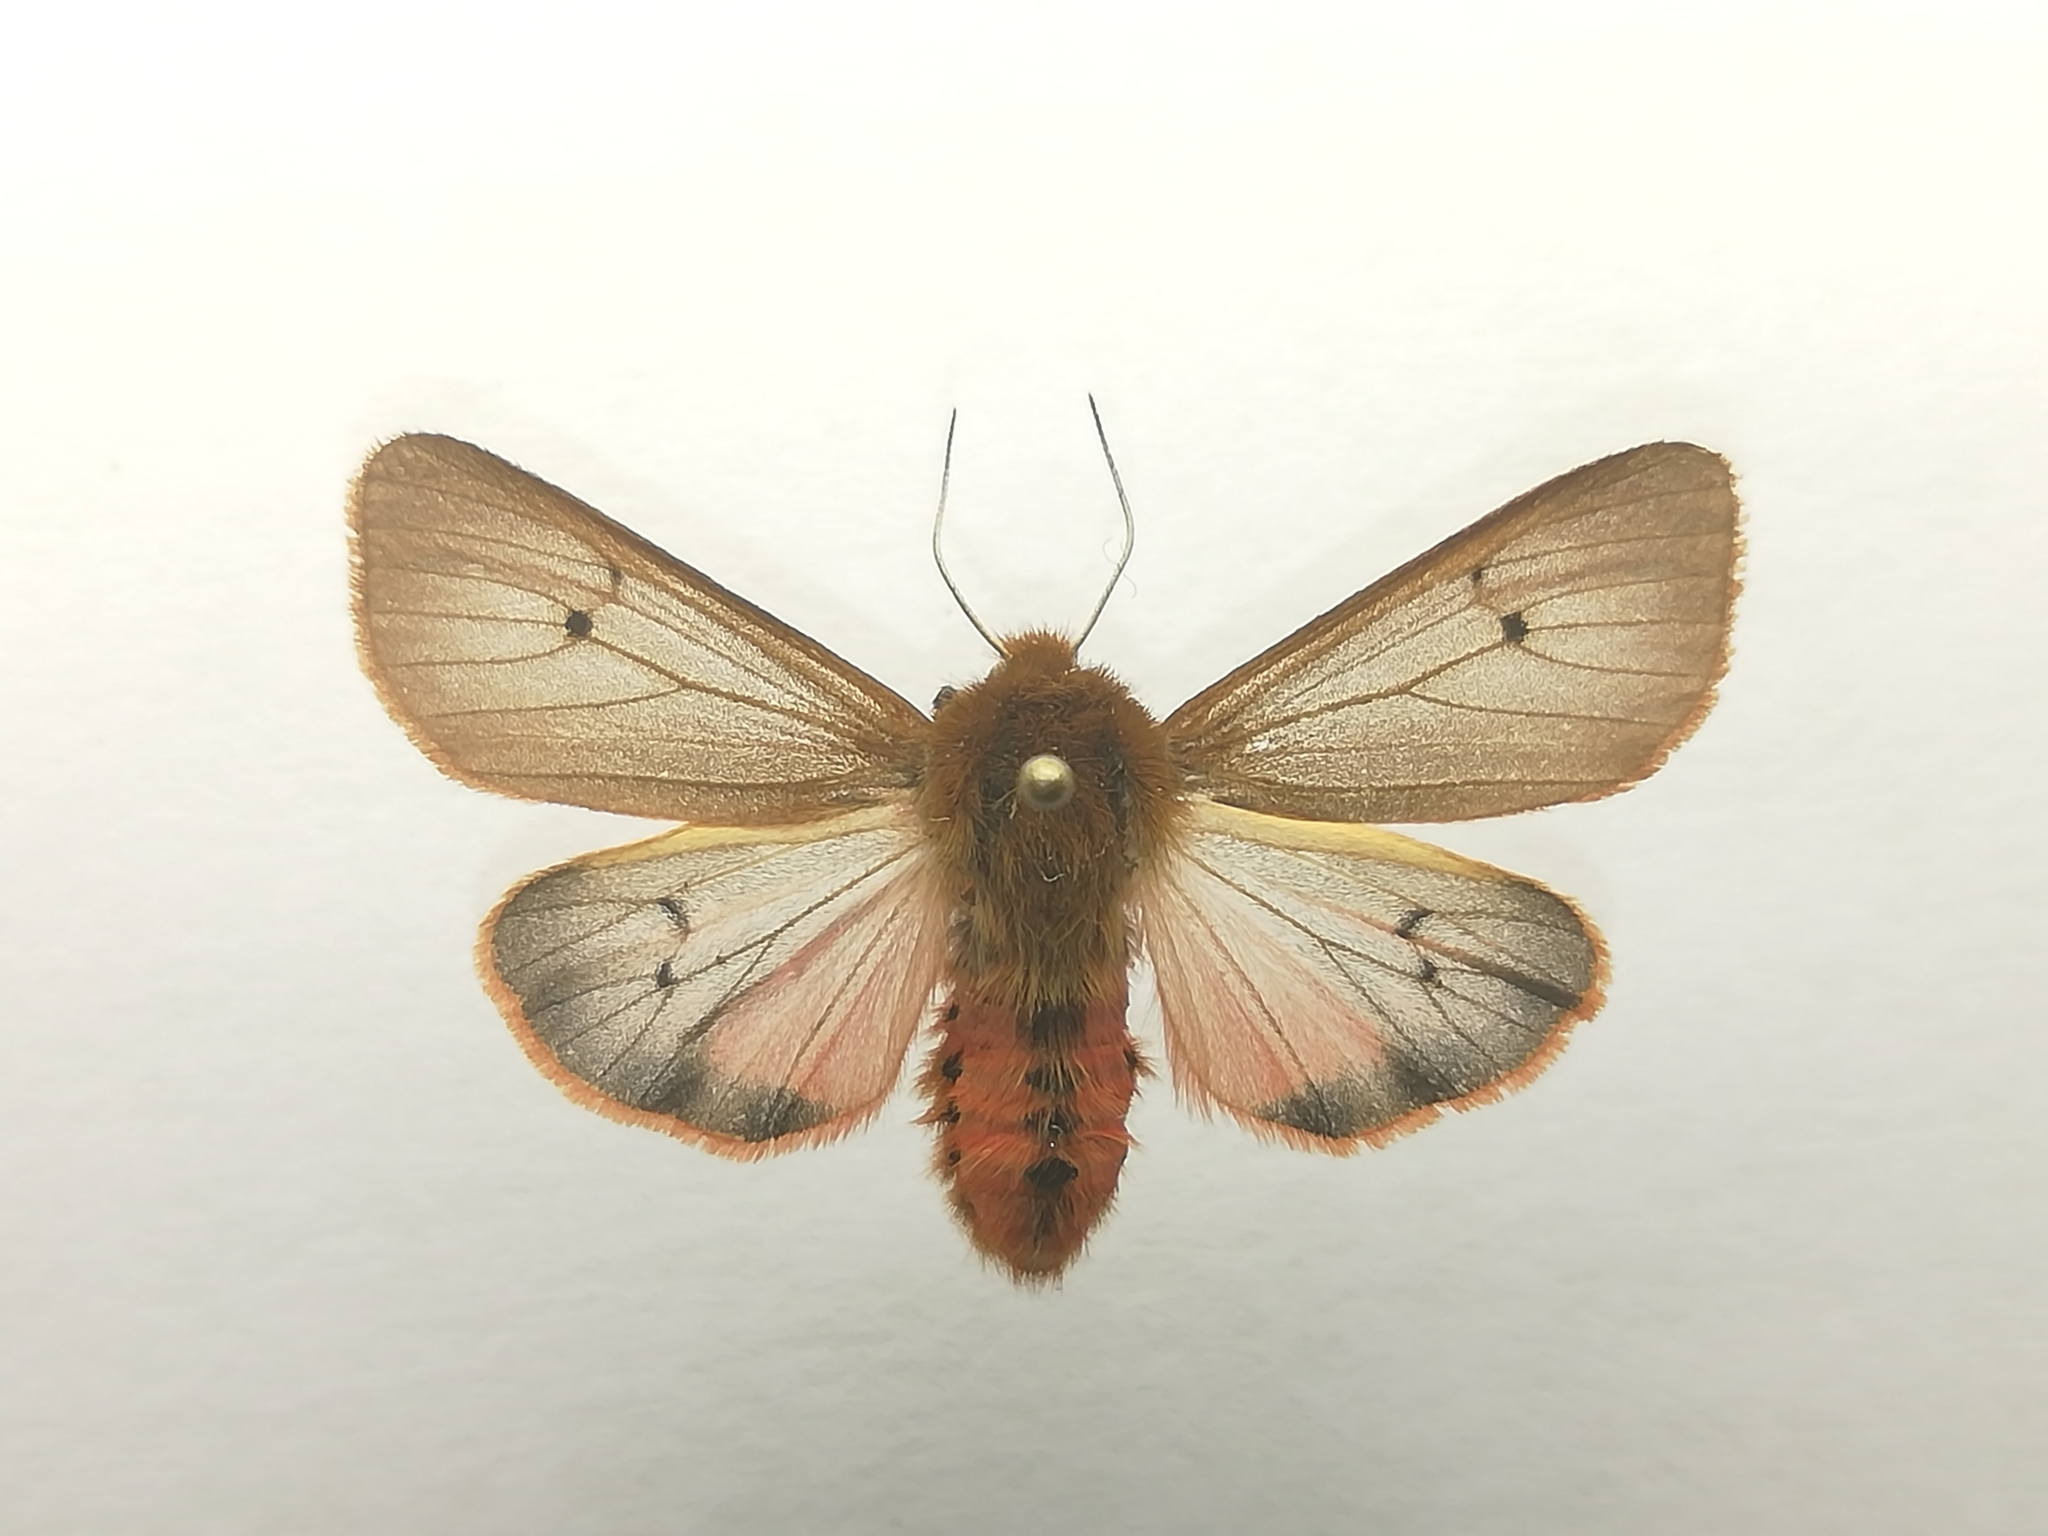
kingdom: Animalia
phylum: Arthropoda
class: Insecta
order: Lepidoptera
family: Erebidae
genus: Phragmatobia
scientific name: Phragmatobia fuliginosa
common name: Ruby tiger
